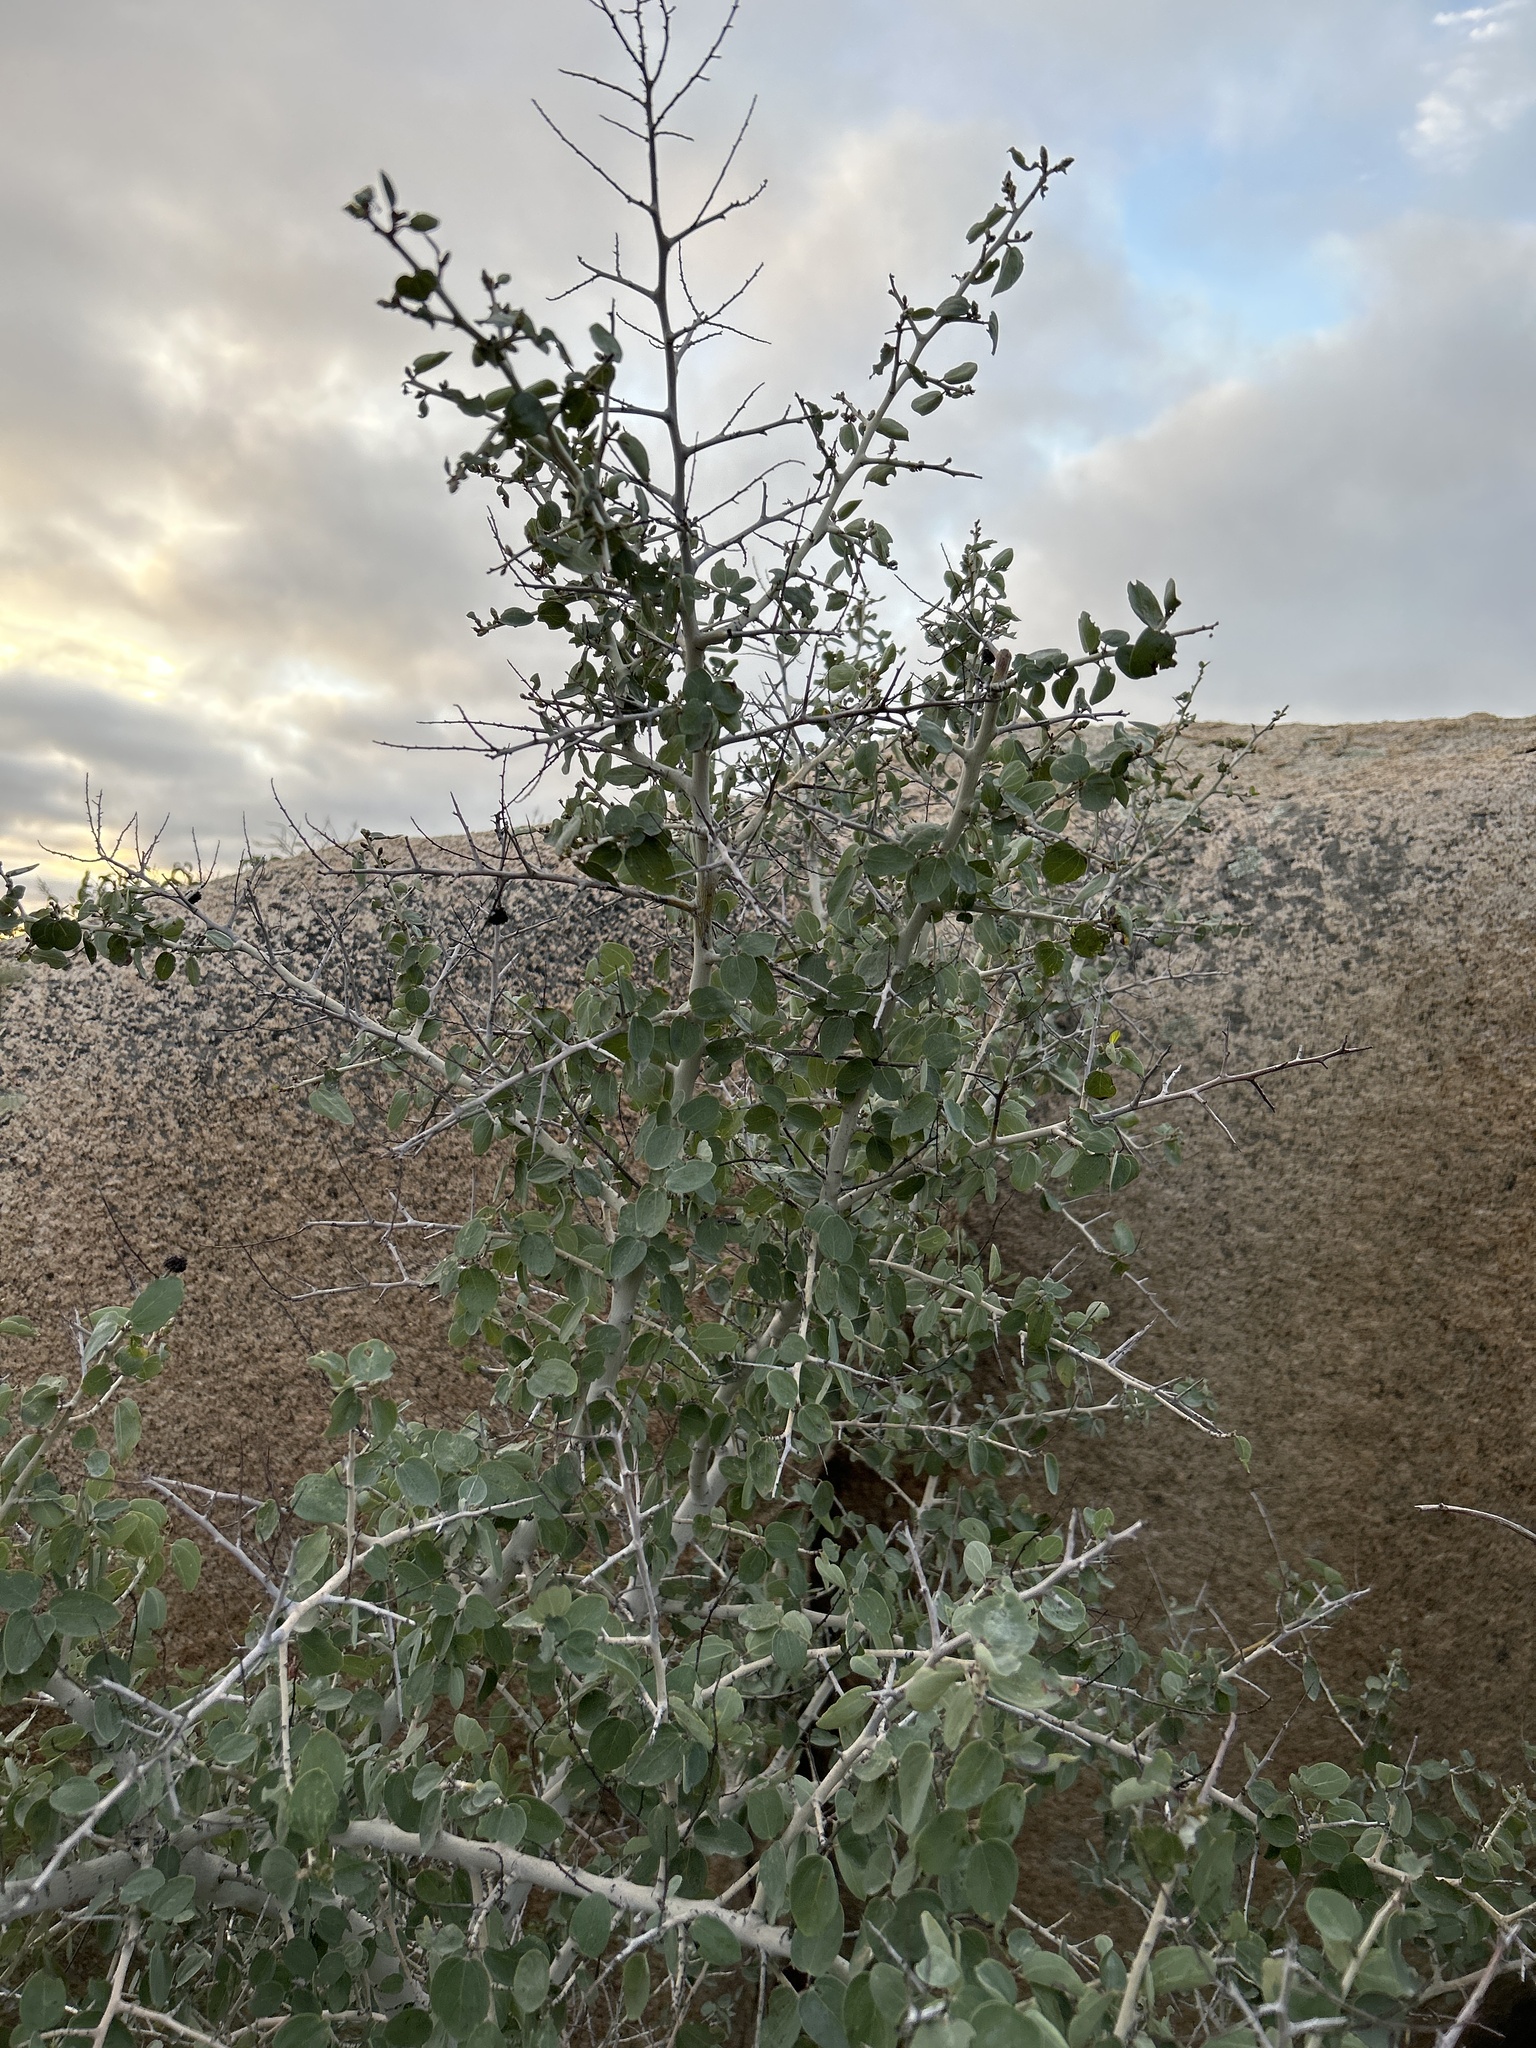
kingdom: Plantae
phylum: Tracheophyta
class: Magnoliopsida
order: Rosales
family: Rhamnaceae
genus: Ceanothus
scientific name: Ceanothus leucodermis
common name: Chaparral whitethorn
